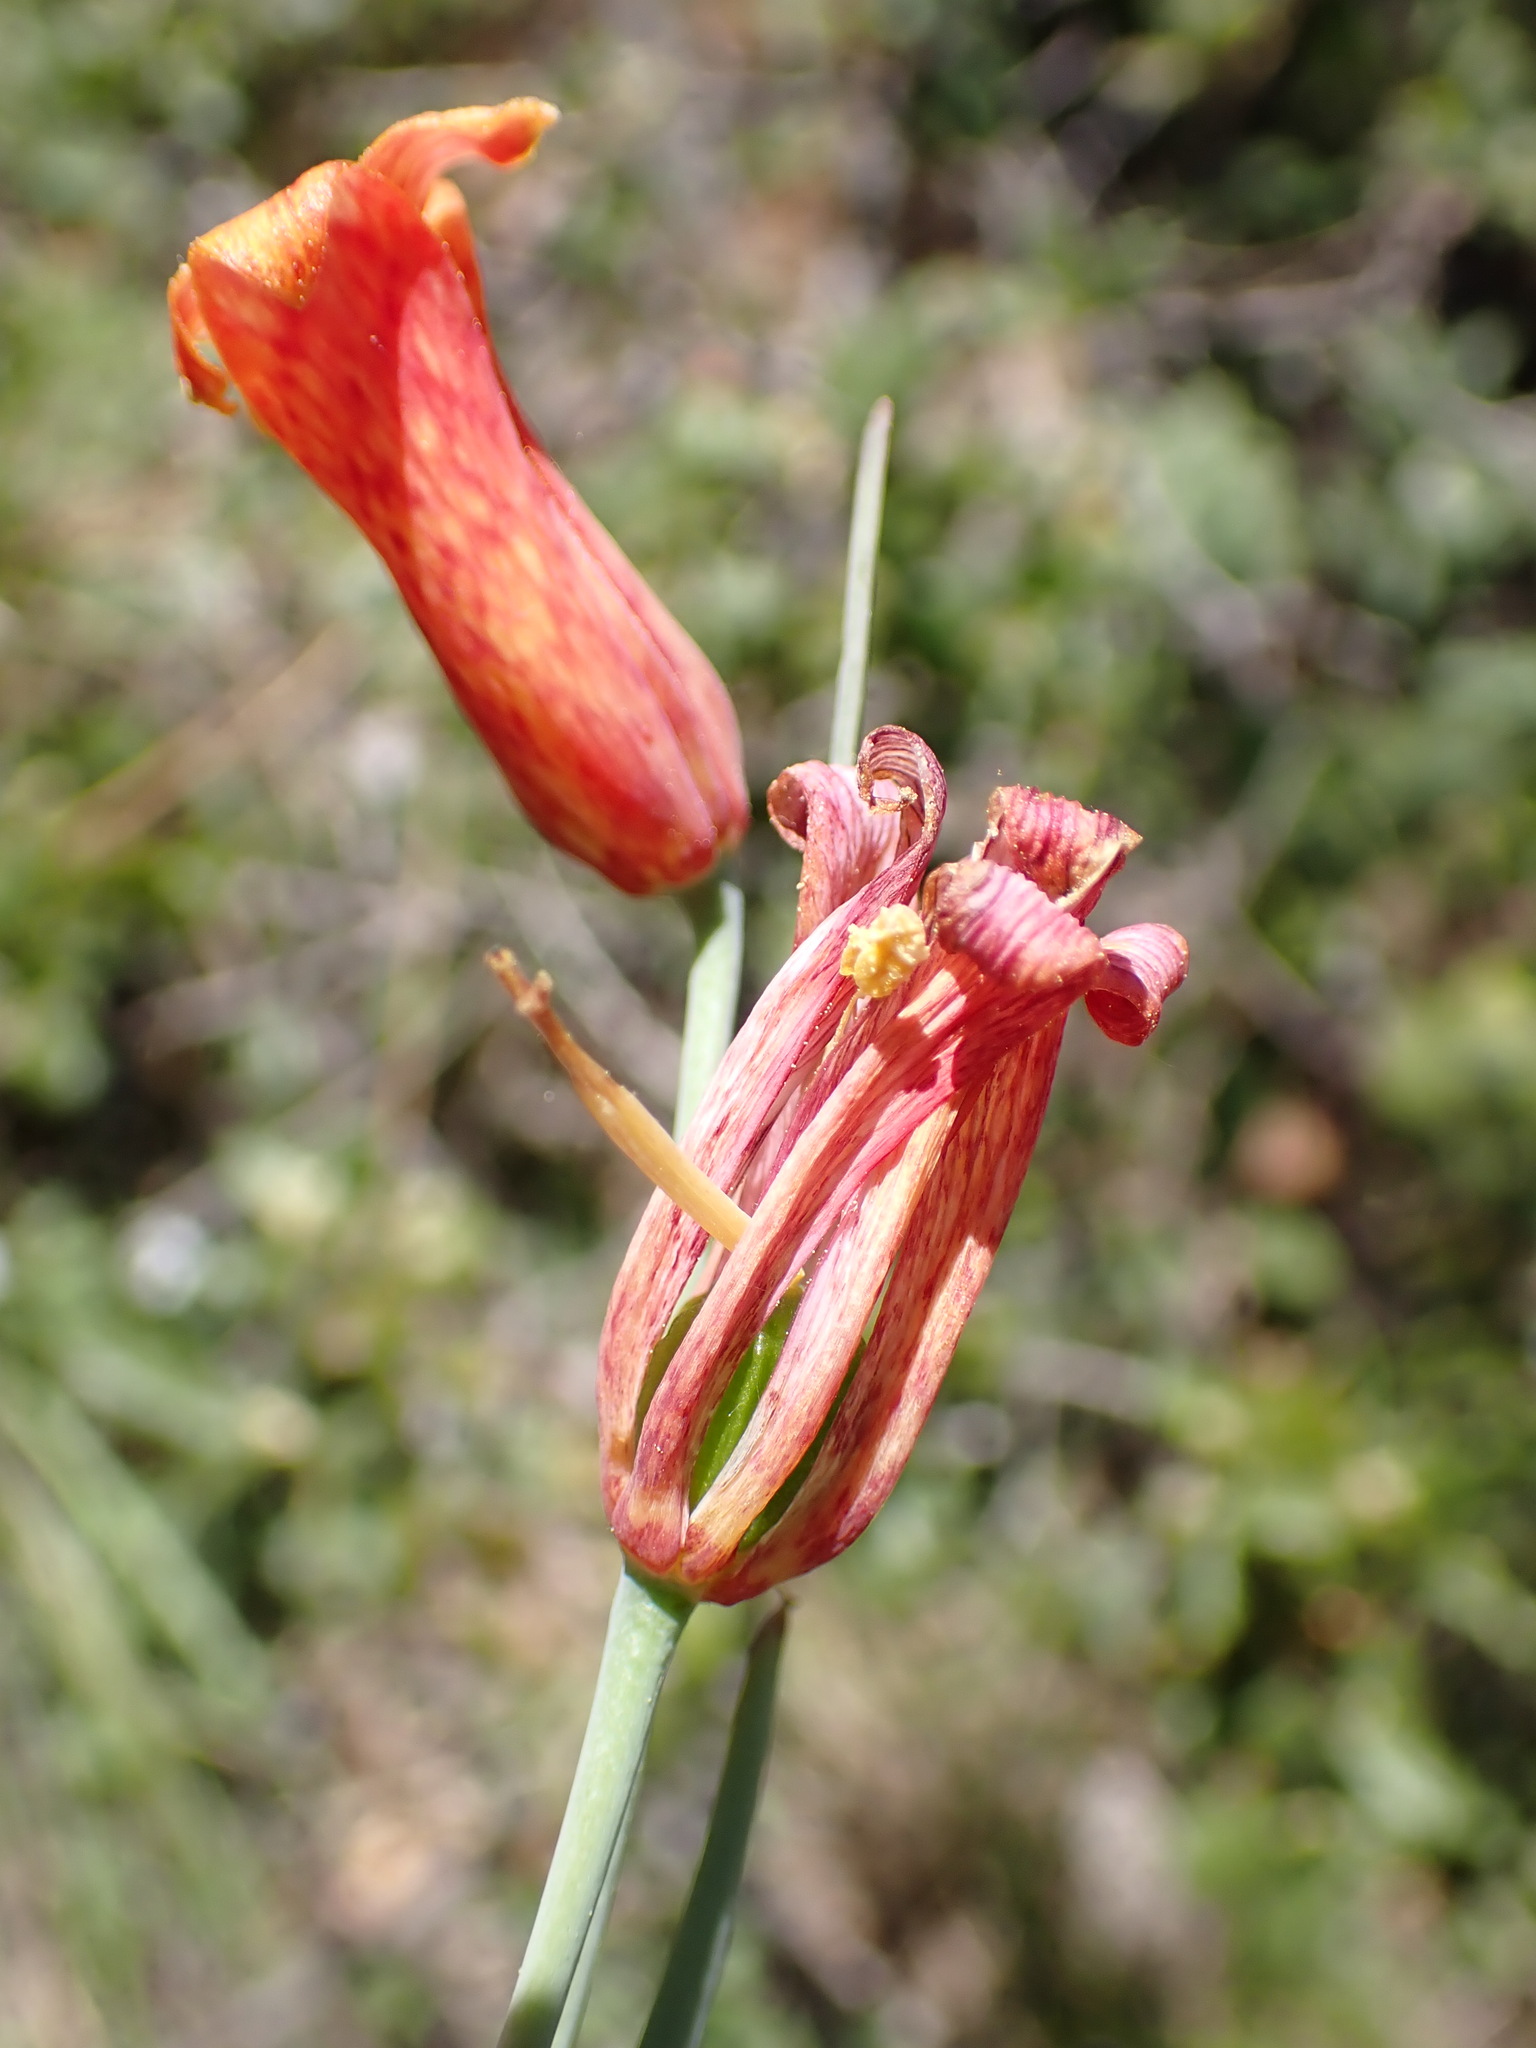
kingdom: Plantae
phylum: Tracheophyta
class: Liliopsida
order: Liliales
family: Liliaceae
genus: Fritillaria
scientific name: Fritillaria recurva
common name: Scarlet fritillary
